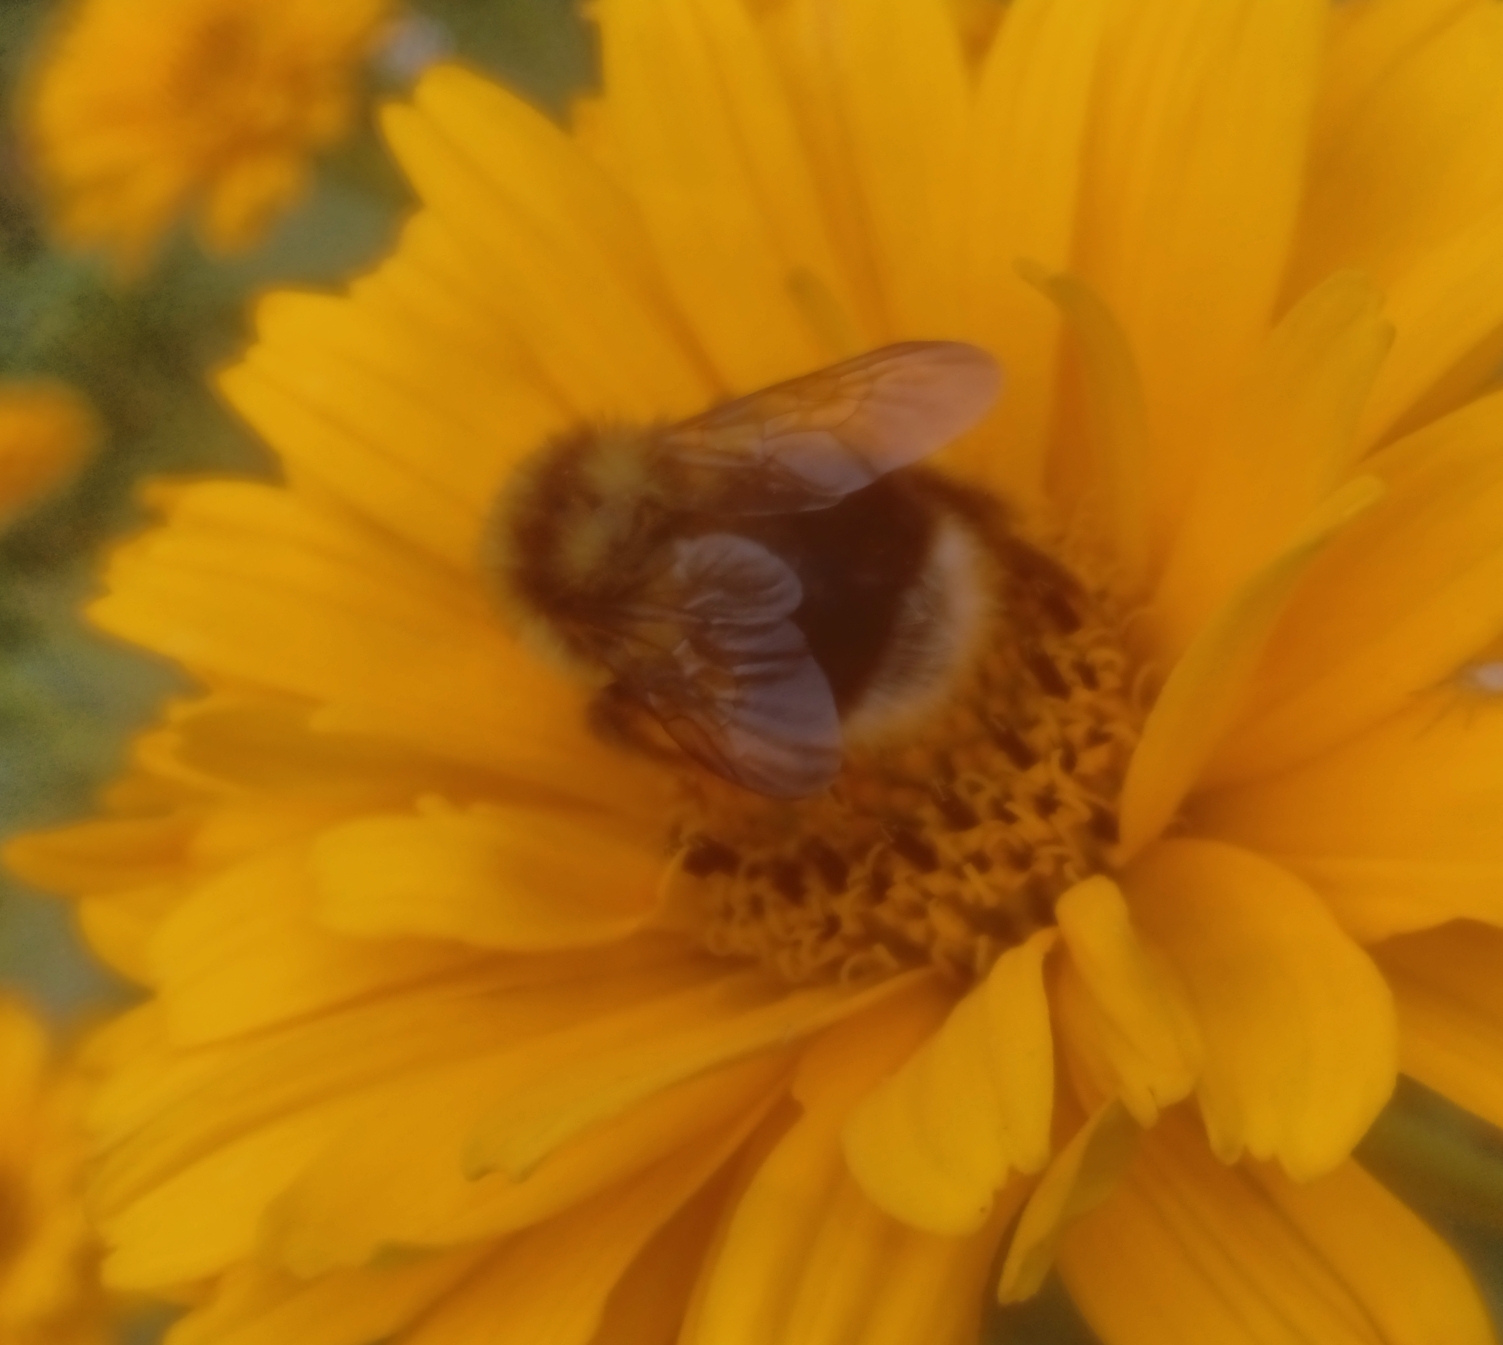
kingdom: Animalia
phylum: Arthropoda
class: Insecta
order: Hymenoptera
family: Apidae
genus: Bombus
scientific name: Bombus
